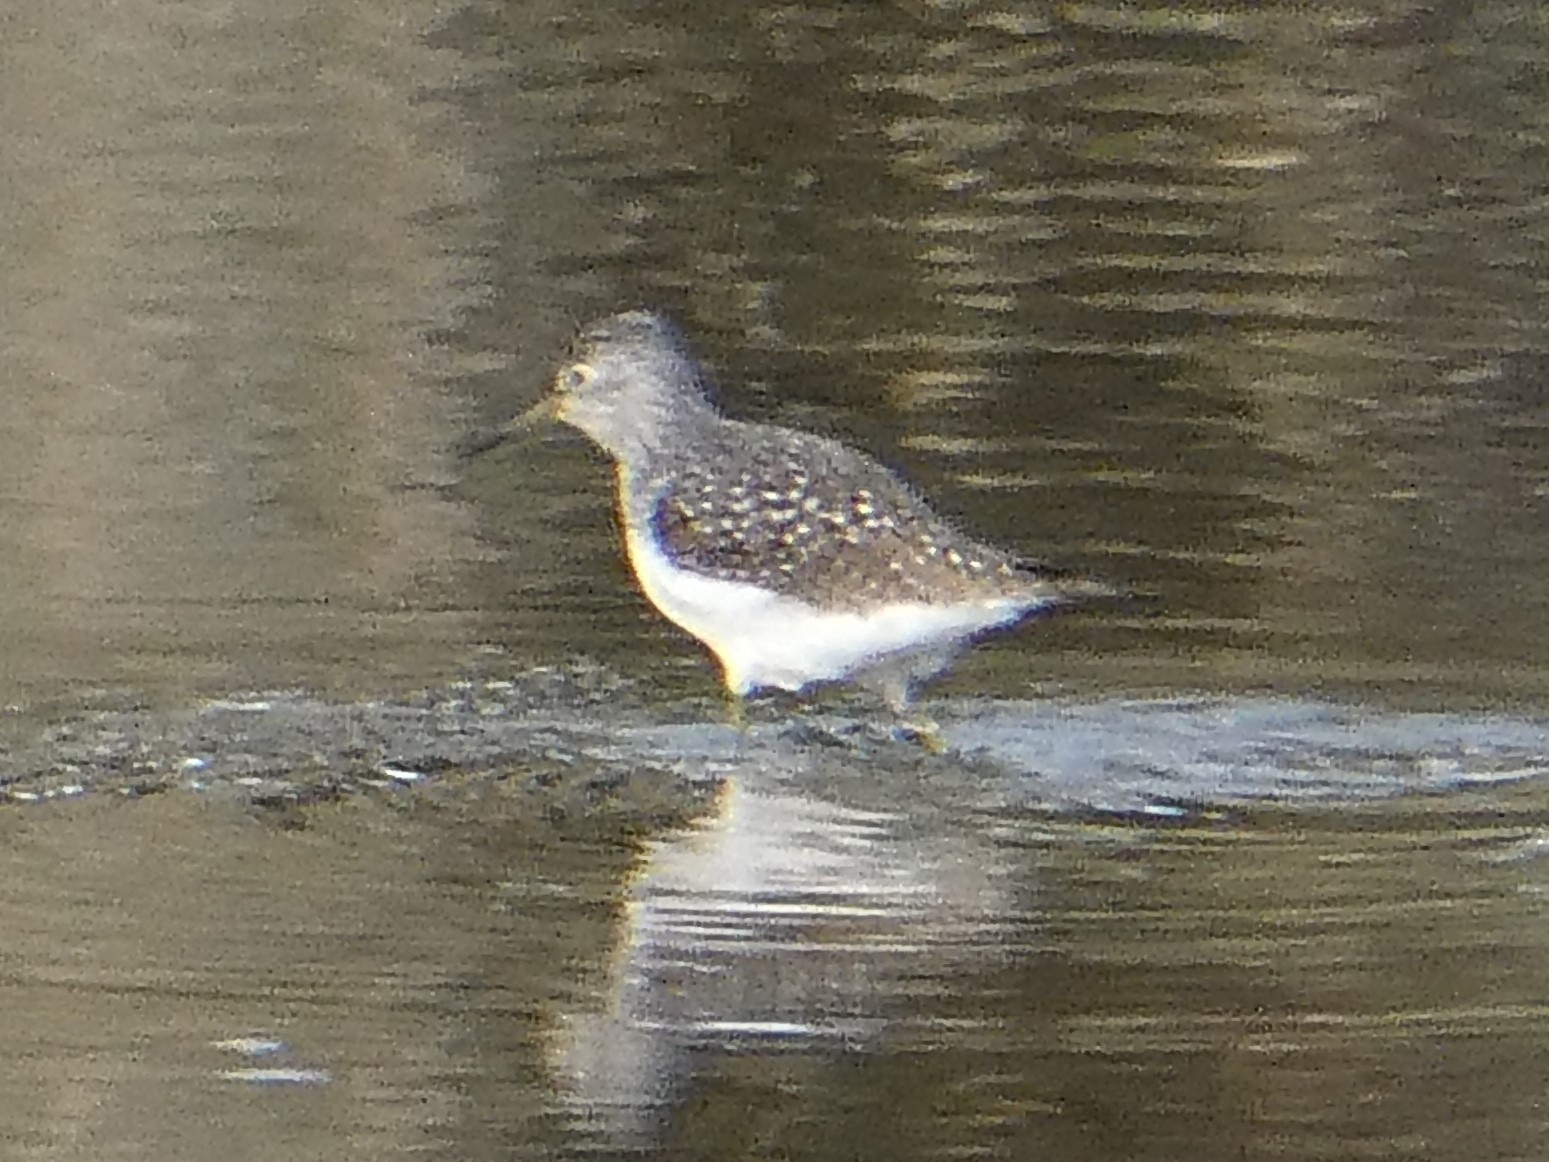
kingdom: Animalia
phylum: Chordata
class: Aves
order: Charadriiformes
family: Scolopacidae
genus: Tringa
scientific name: Tringa solitaria
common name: Solitary sandpiper
